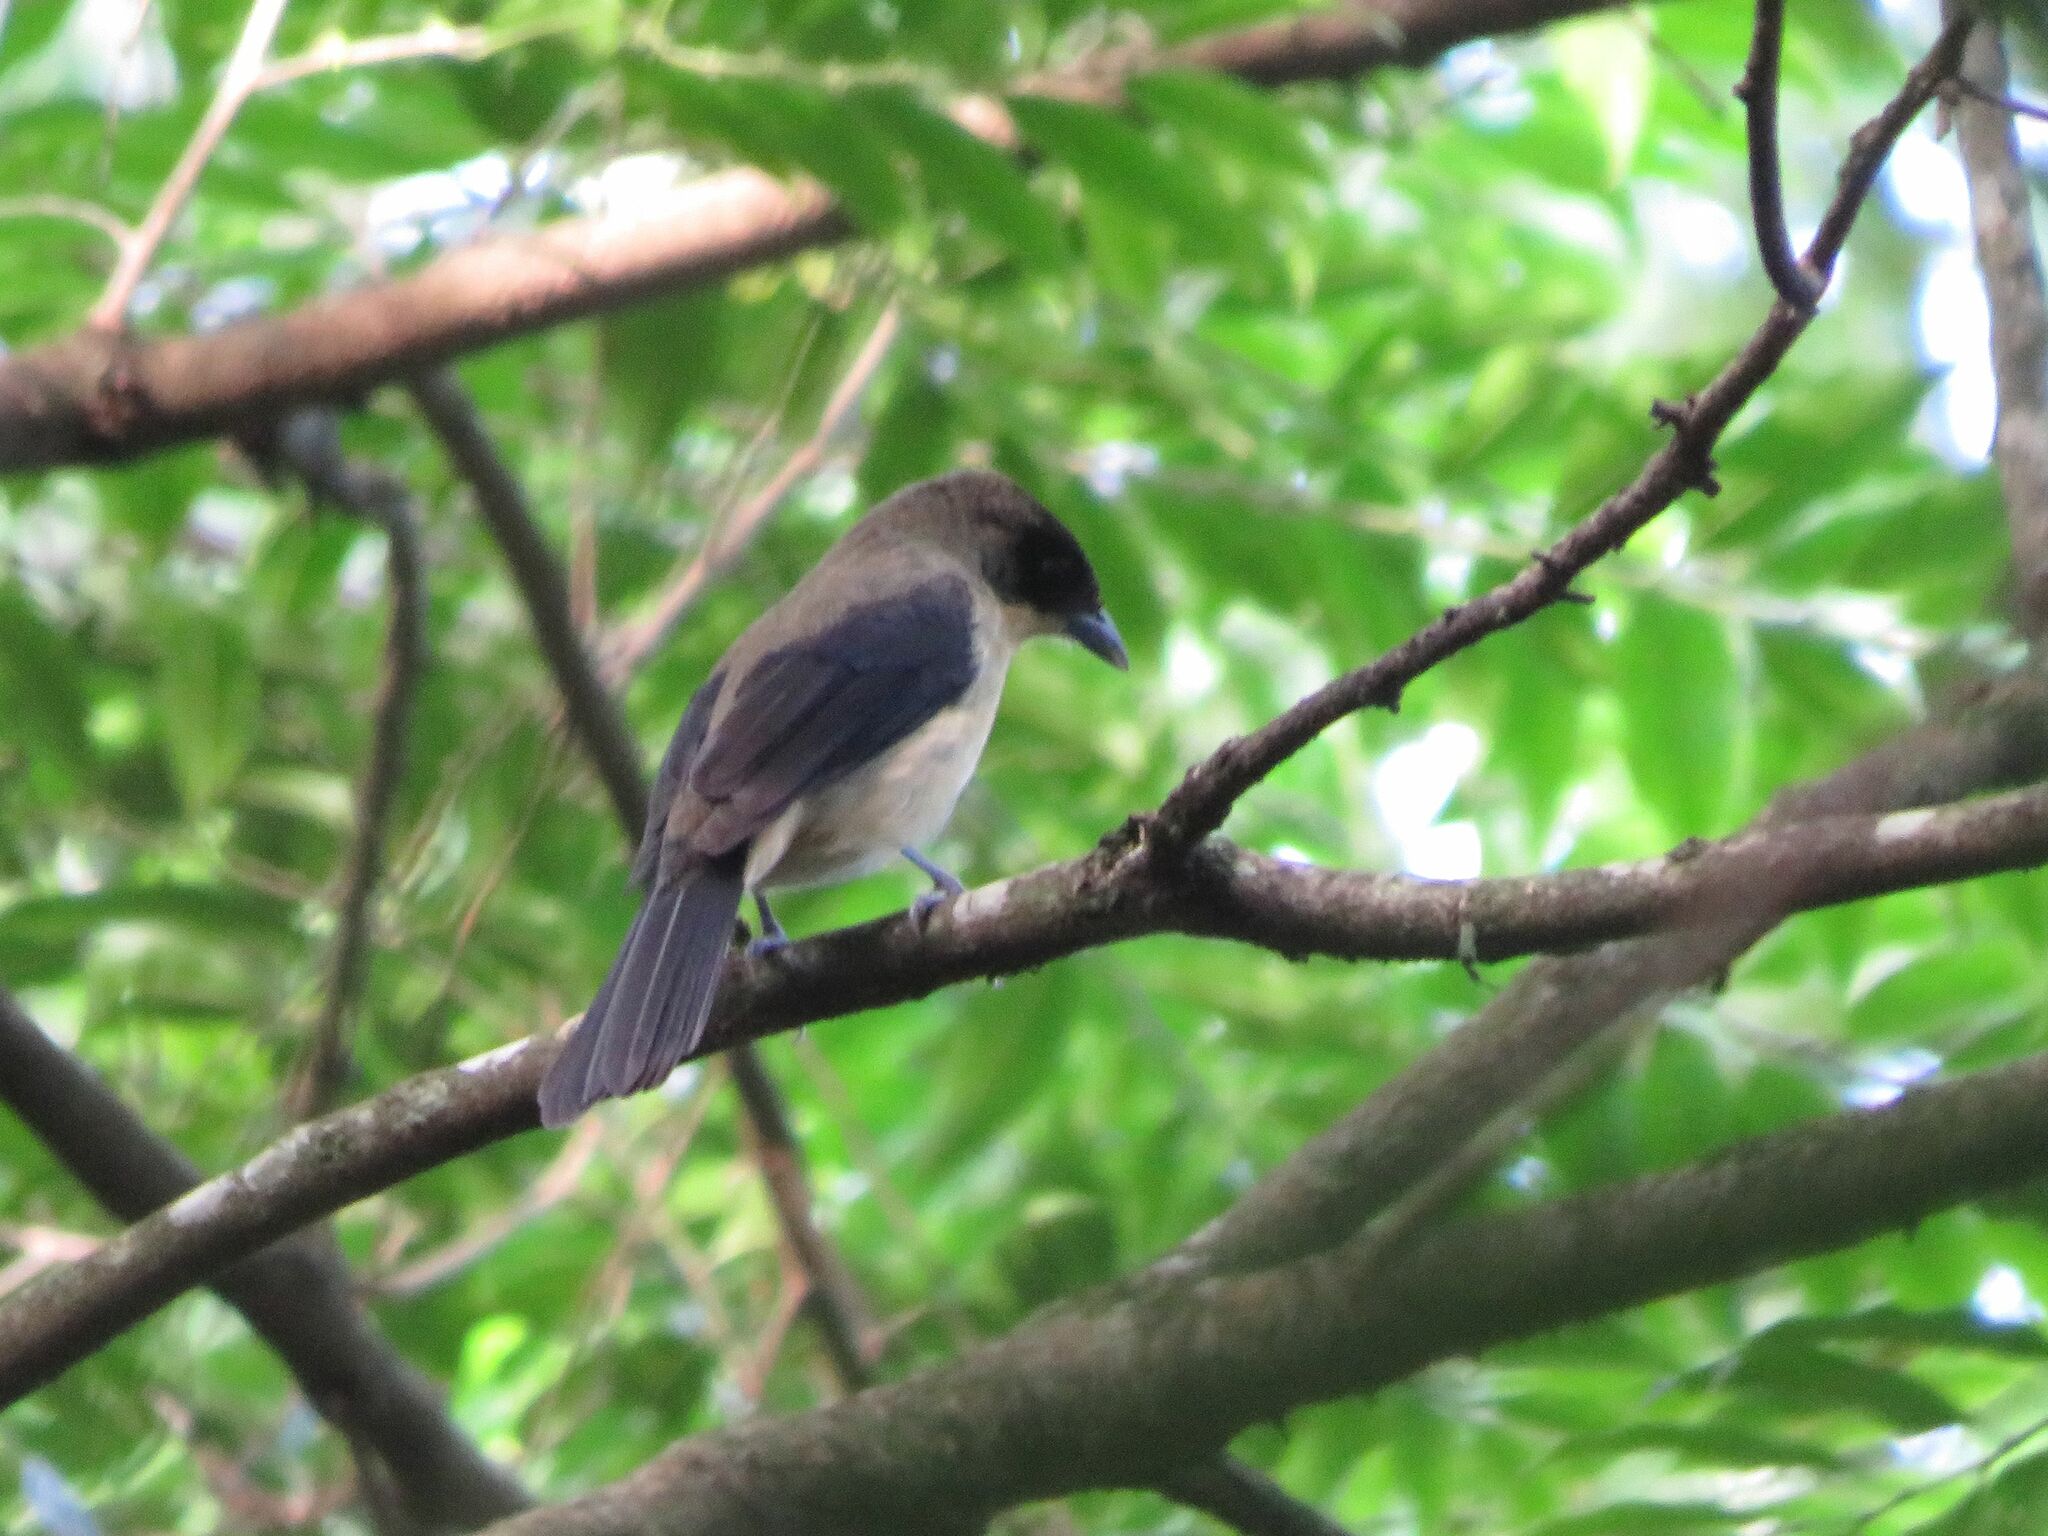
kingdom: Animalia
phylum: Chordata
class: Aves
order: Passeriformes
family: Thraupidae
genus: Trichothraupis
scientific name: Trichothraupis melanops
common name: Black-goggled tanager
